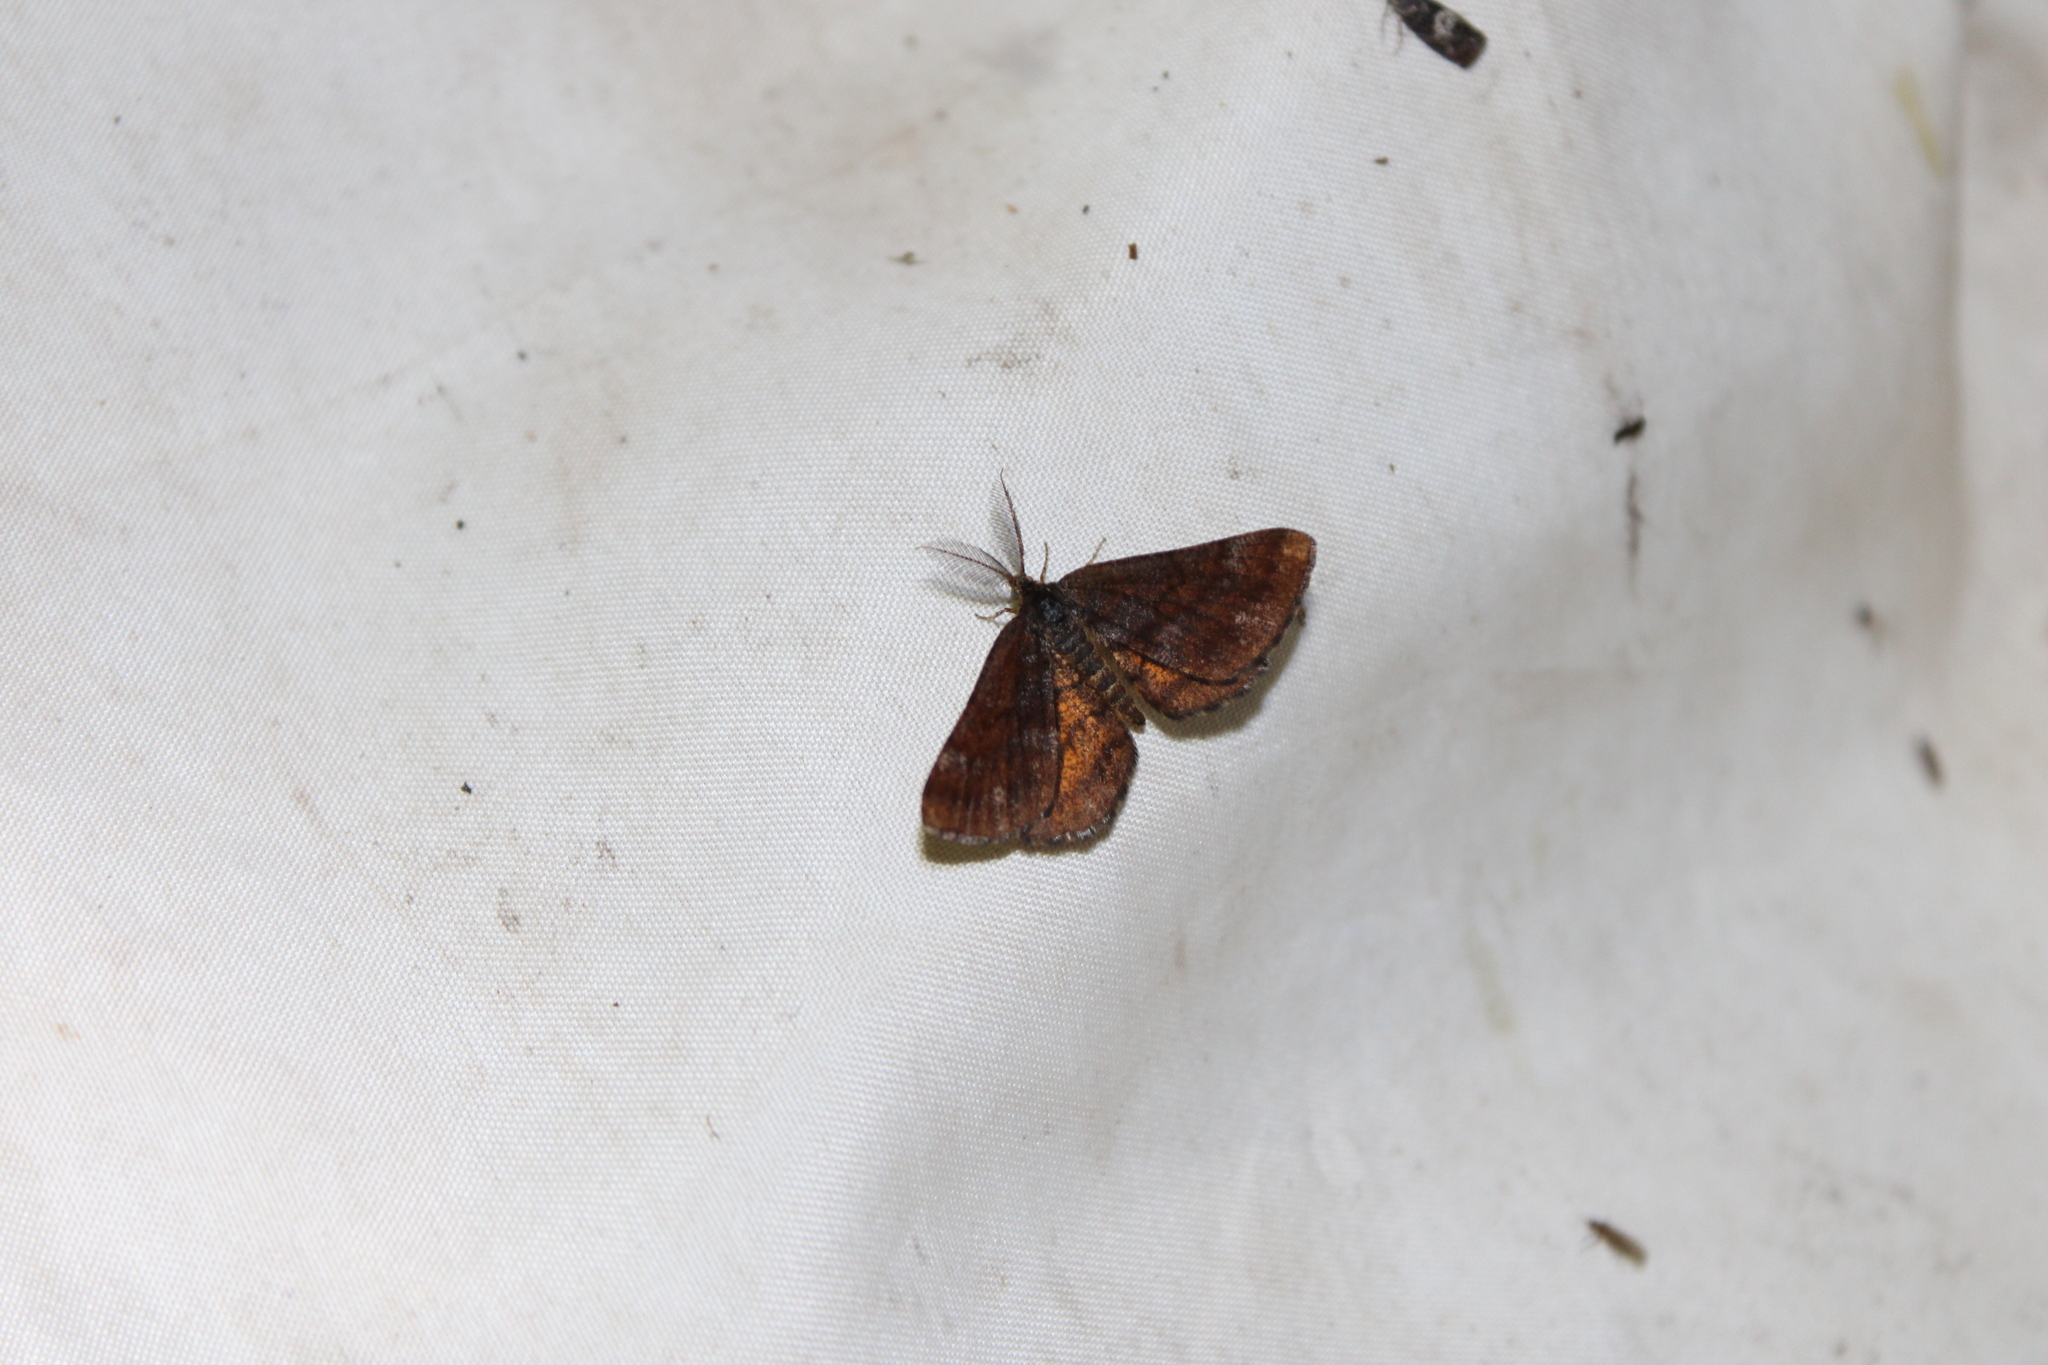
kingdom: Animalia
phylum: Arthropoda
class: Insecta
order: Lepidoptera
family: Geometridae
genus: Ematurga
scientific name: Ematurga amitaria
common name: Cranberry spanworm moth
